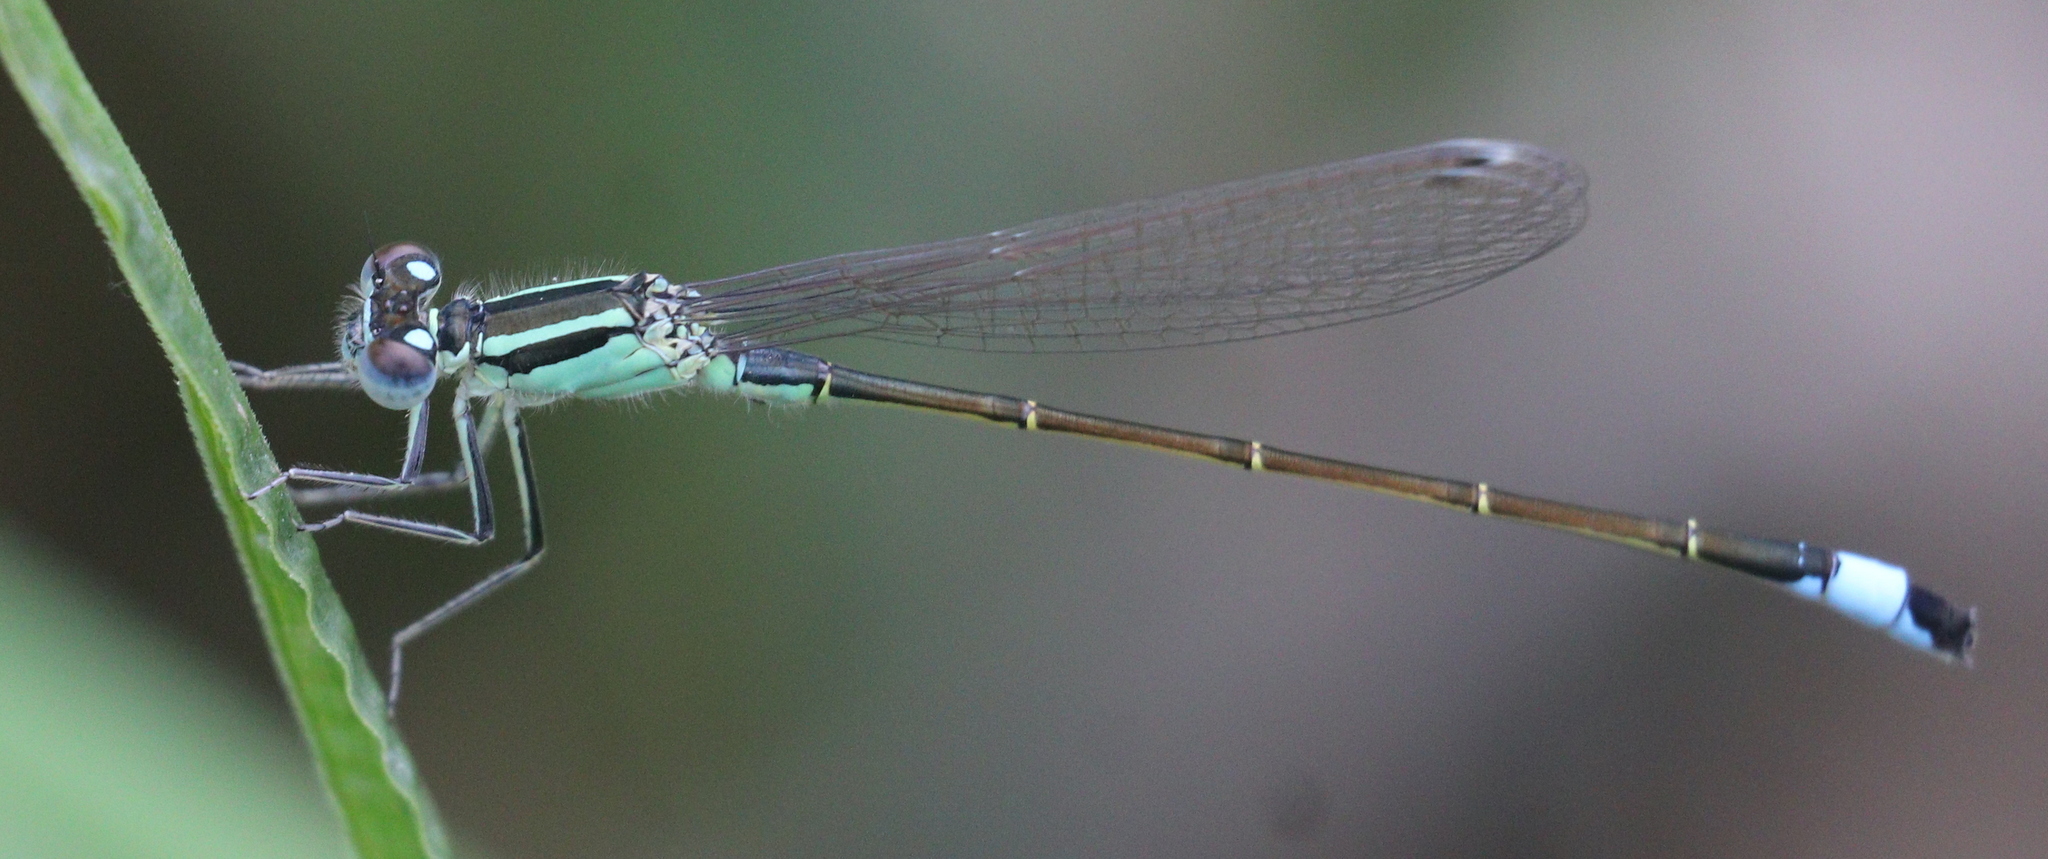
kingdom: Animalia
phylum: Arthropoda
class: Insecta
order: Odonata
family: Coenagrionidae
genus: Ischnura
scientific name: Ischnura elegans
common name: Blue-tailed damselfly
